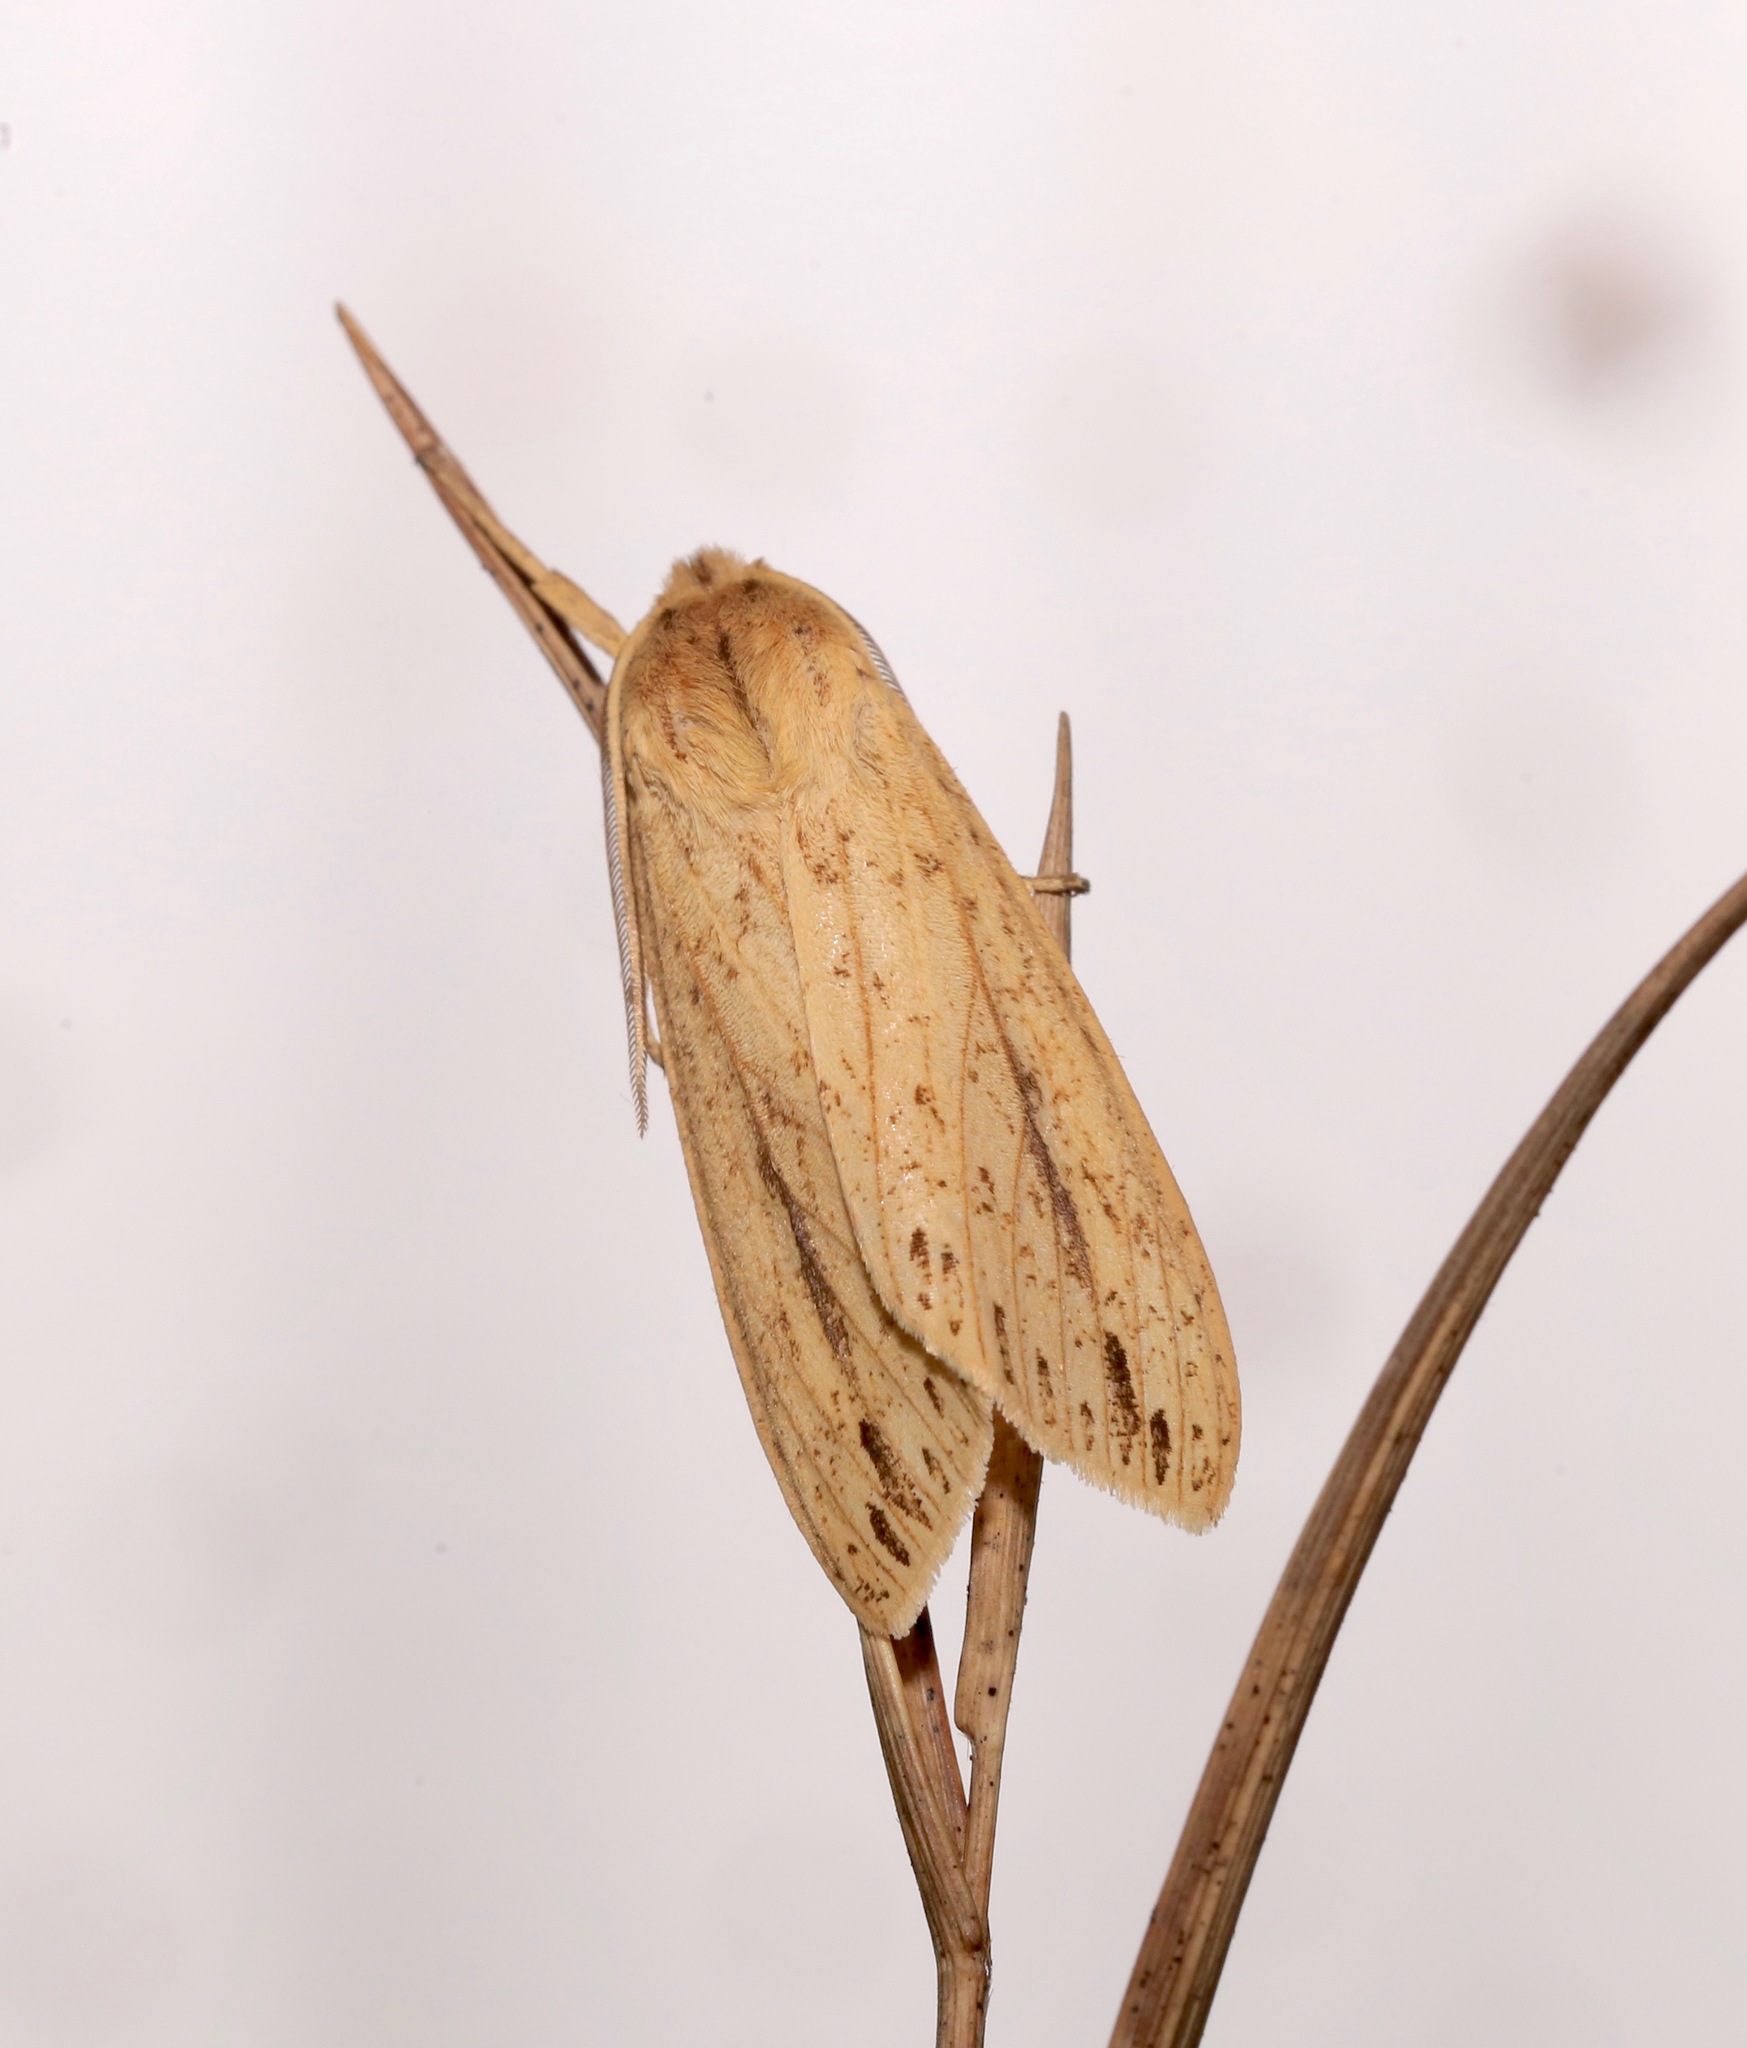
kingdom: Animalia
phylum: Arthropoda
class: Insecta
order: Lepidoptera
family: Erebidae
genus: Leucanopsis
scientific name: Leucanopsis longa
